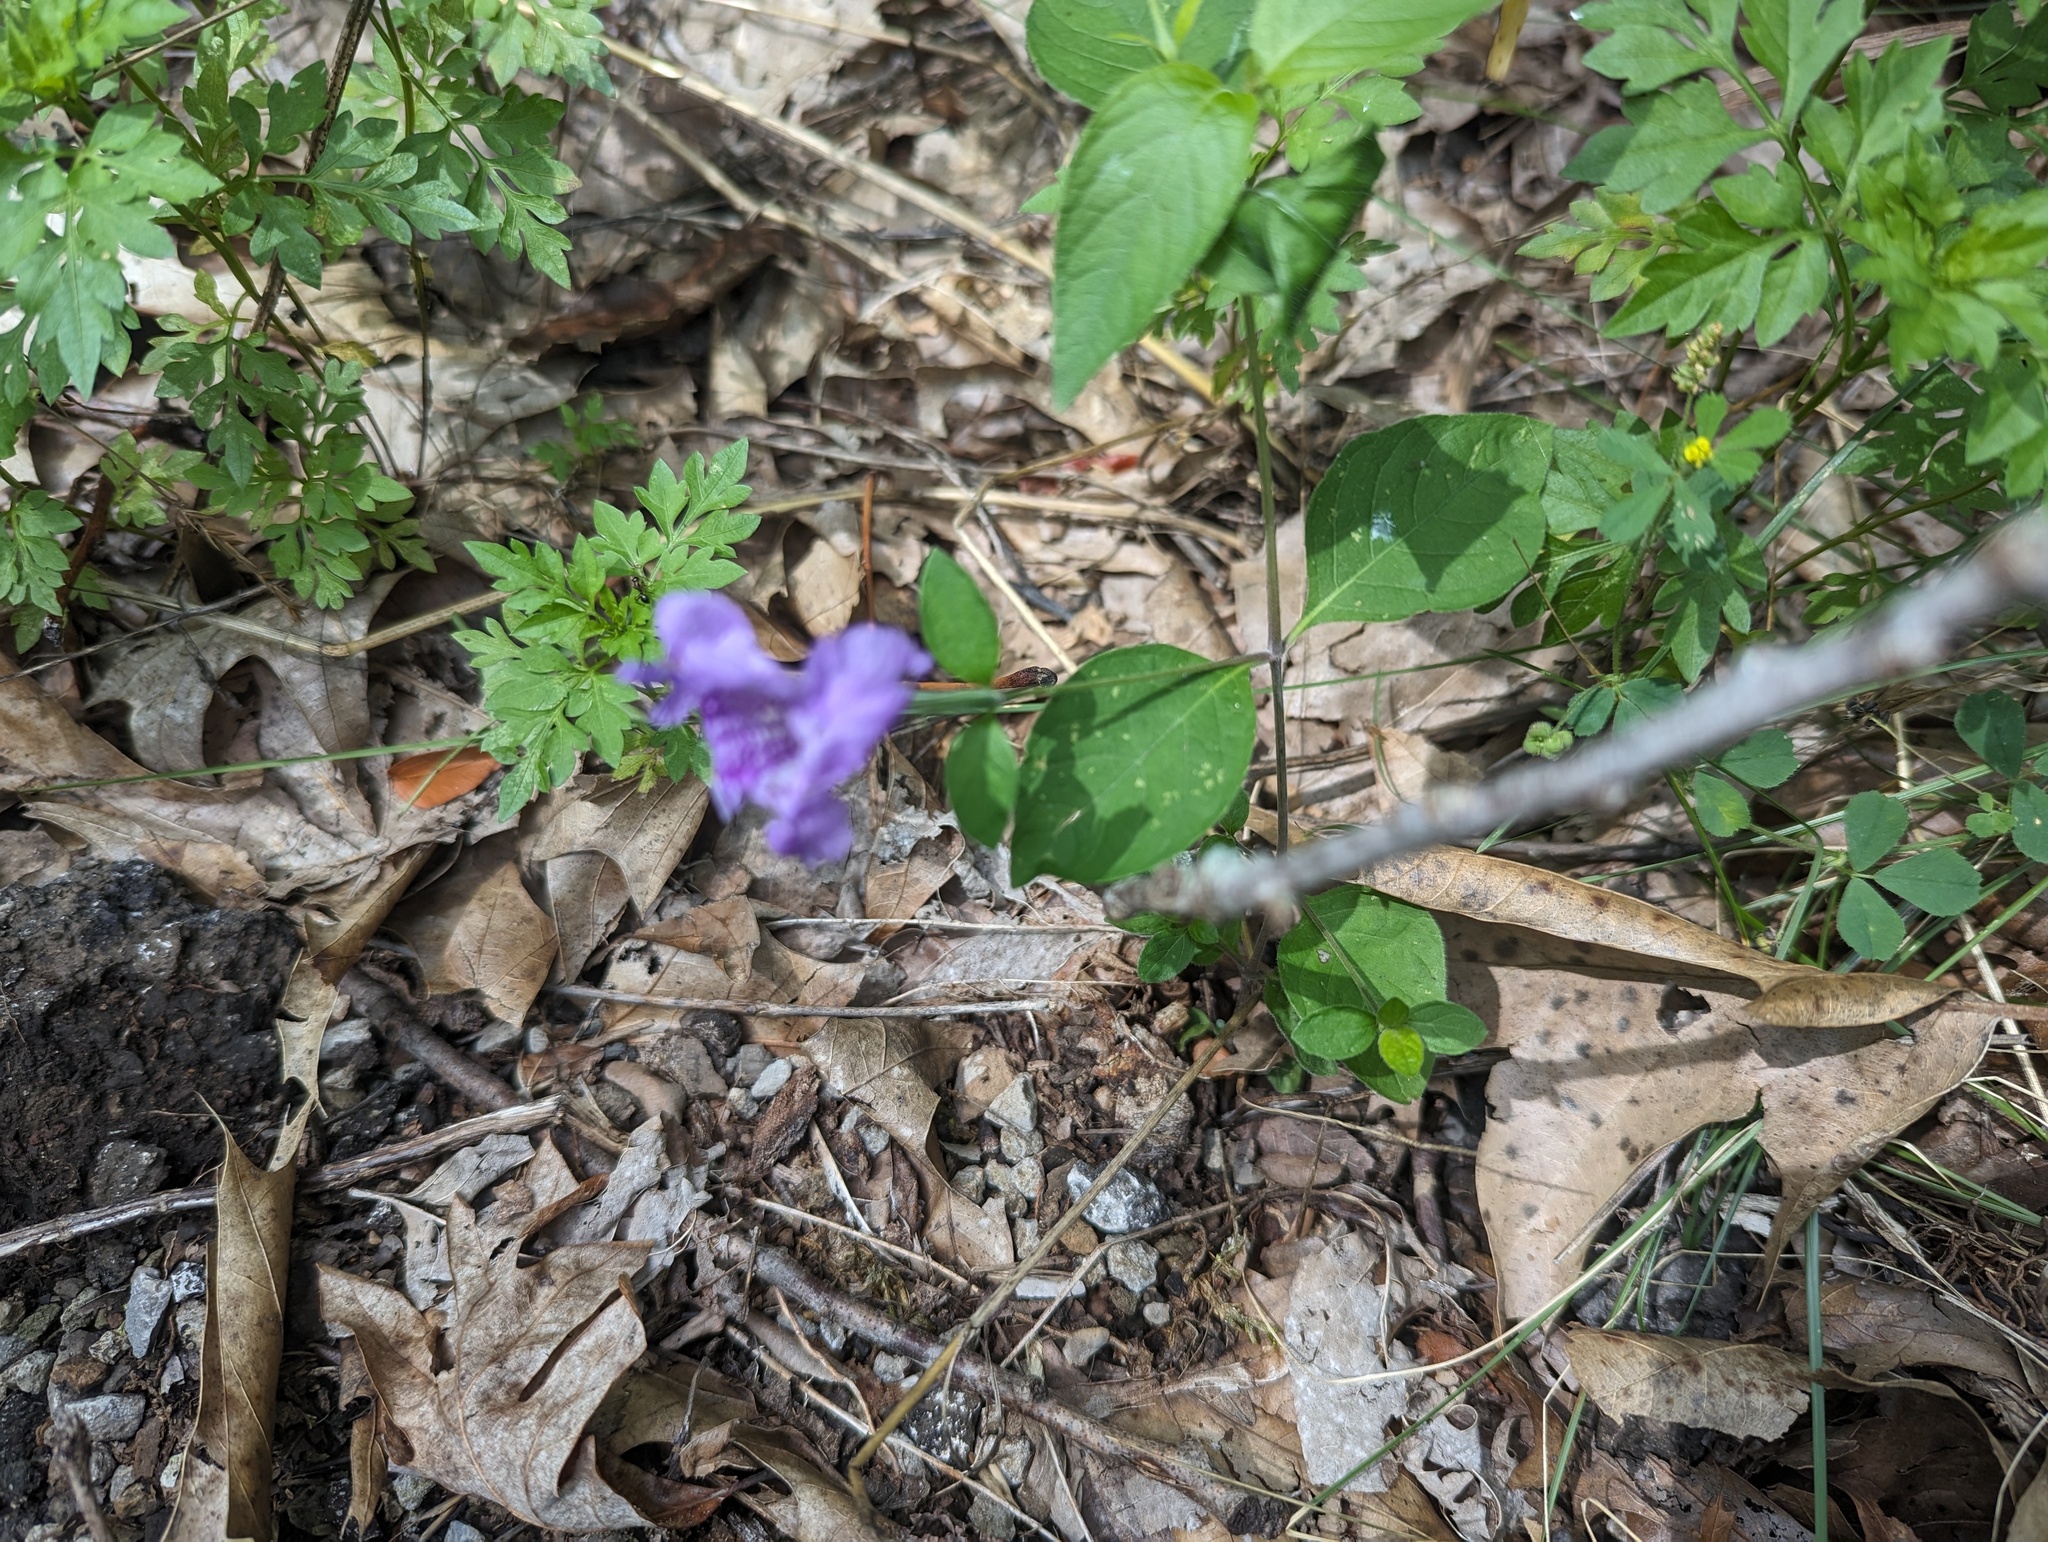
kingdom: Plantae
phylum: Tracheophyta
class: Magnoliopsida
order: Lamiales
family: Acanthaceae
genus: Ruellia
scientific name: Ruellia pedunculata
